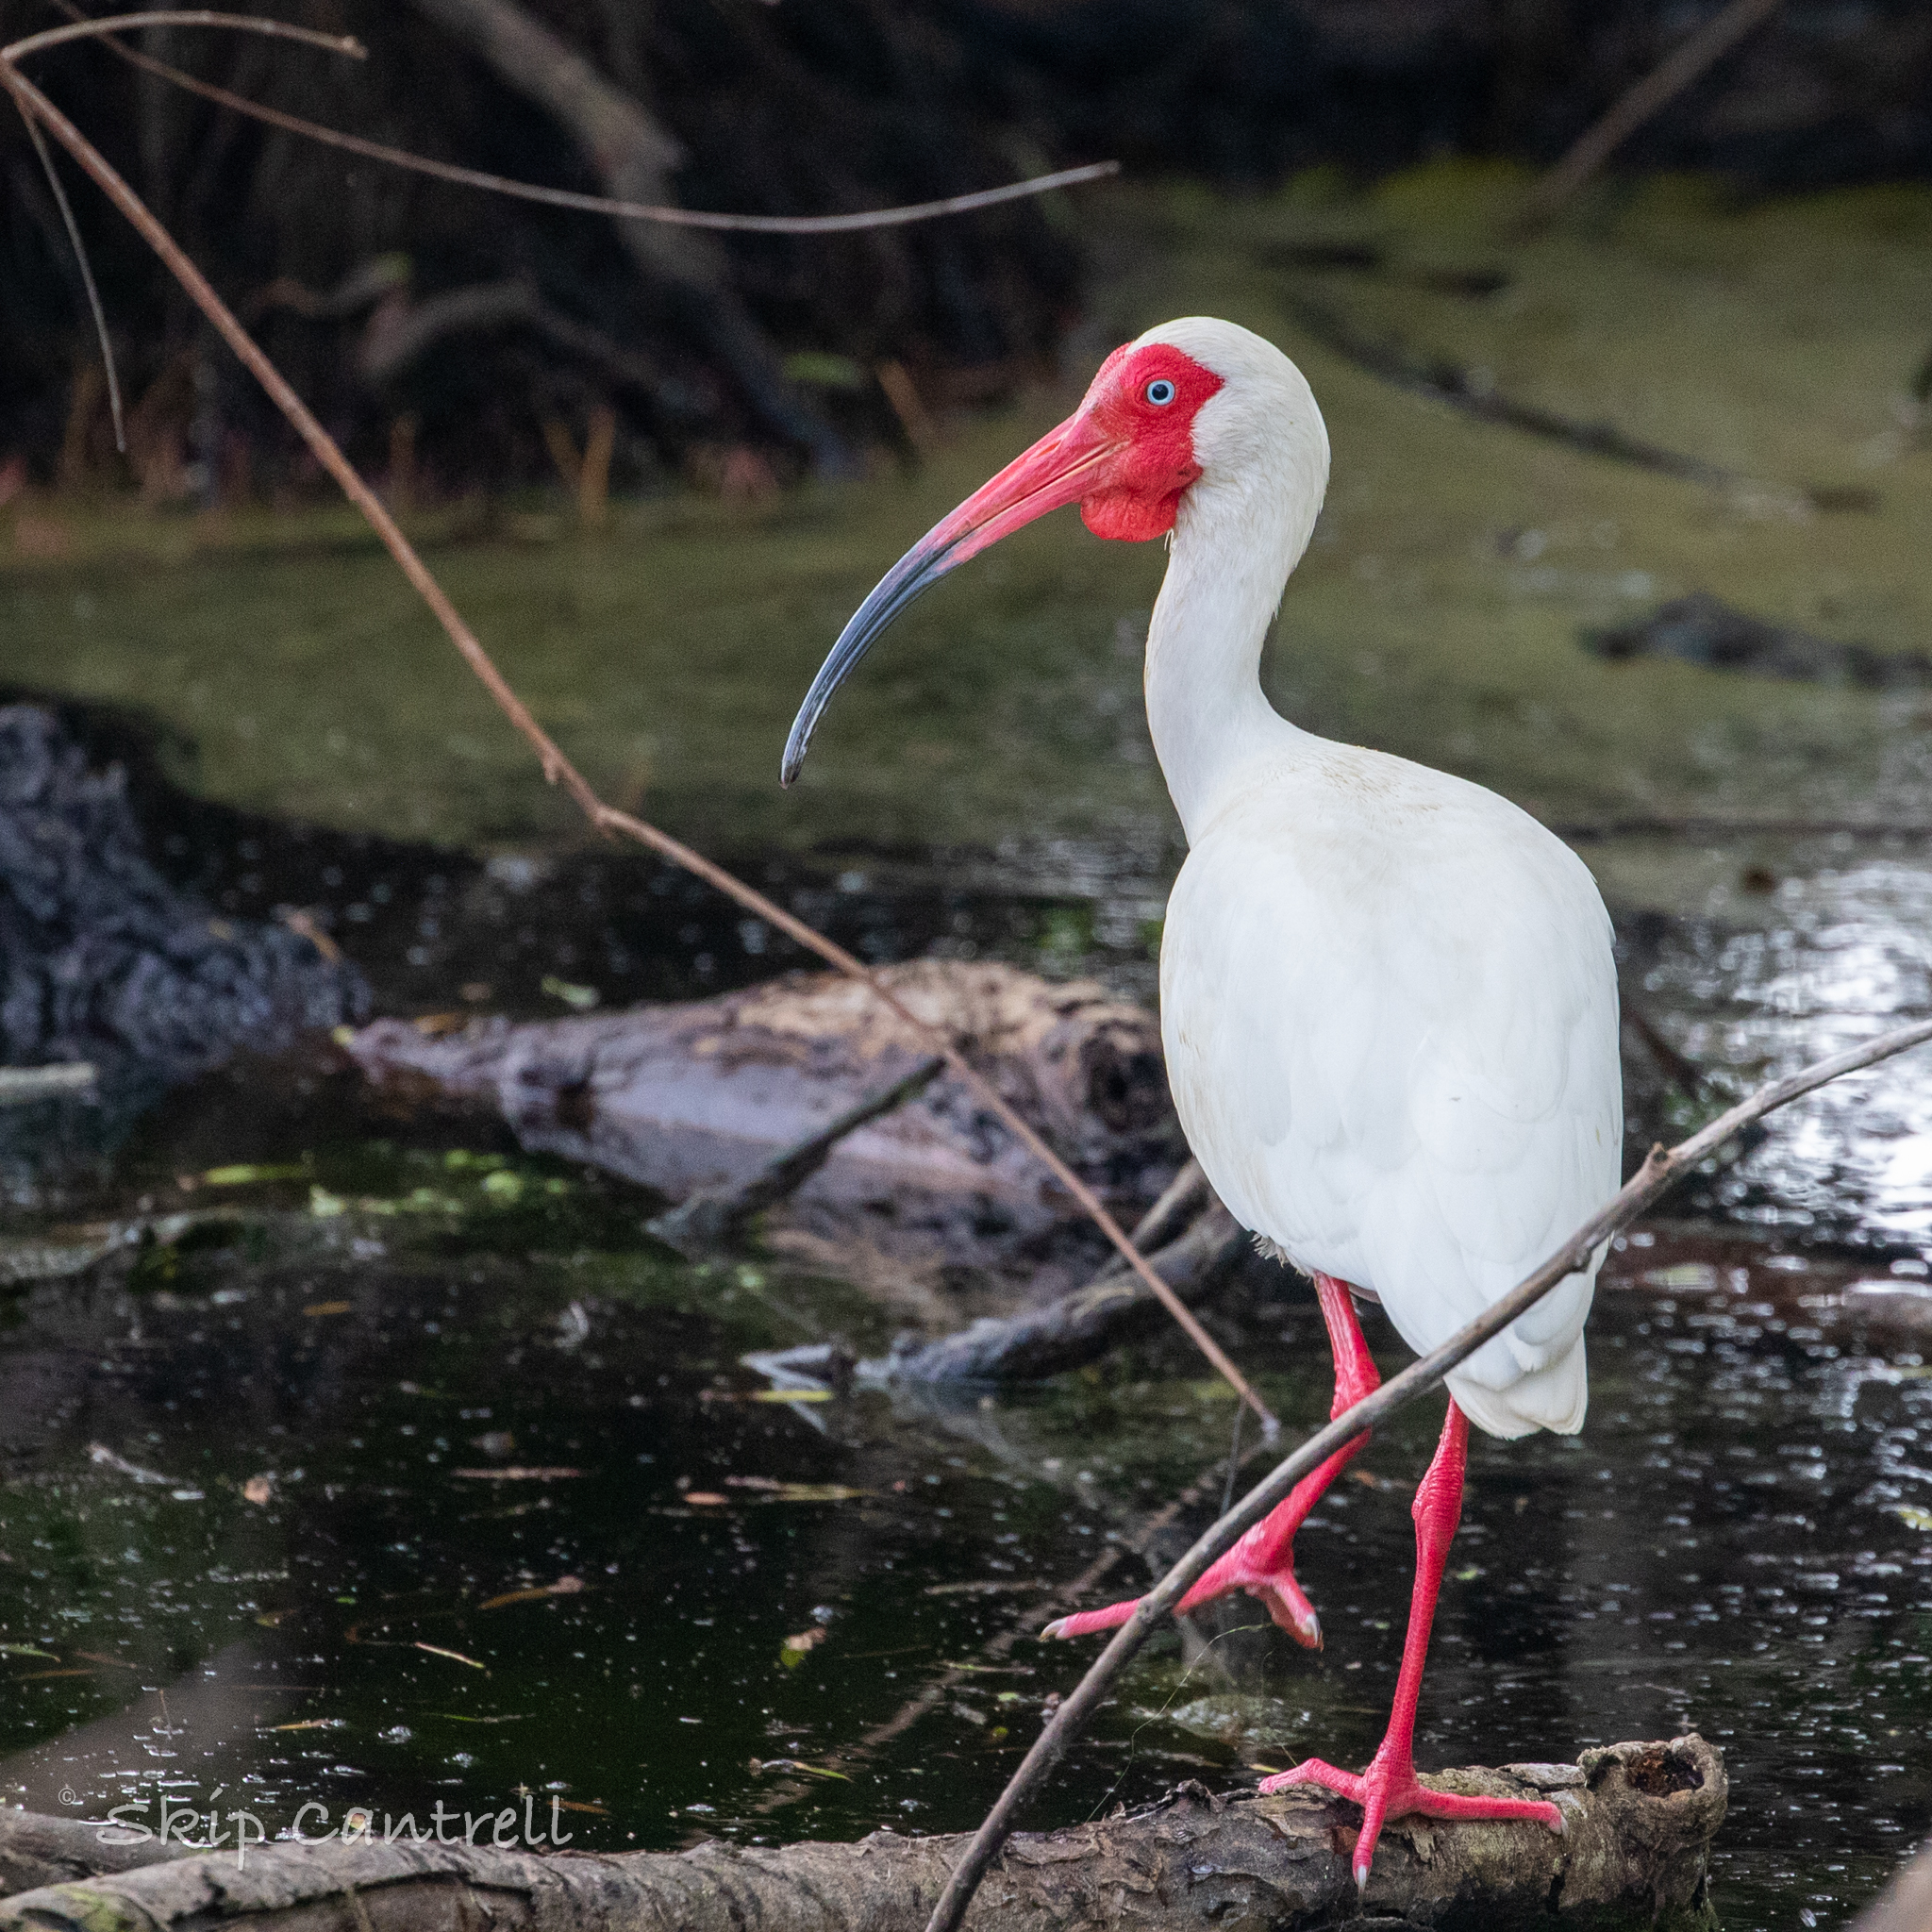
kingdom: Animalia
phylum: Chordata
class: Aves
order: Pelecaniformes
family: Threskiornithidae
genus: Eudocimus
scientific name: Eudocimus albus
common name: White ibis
